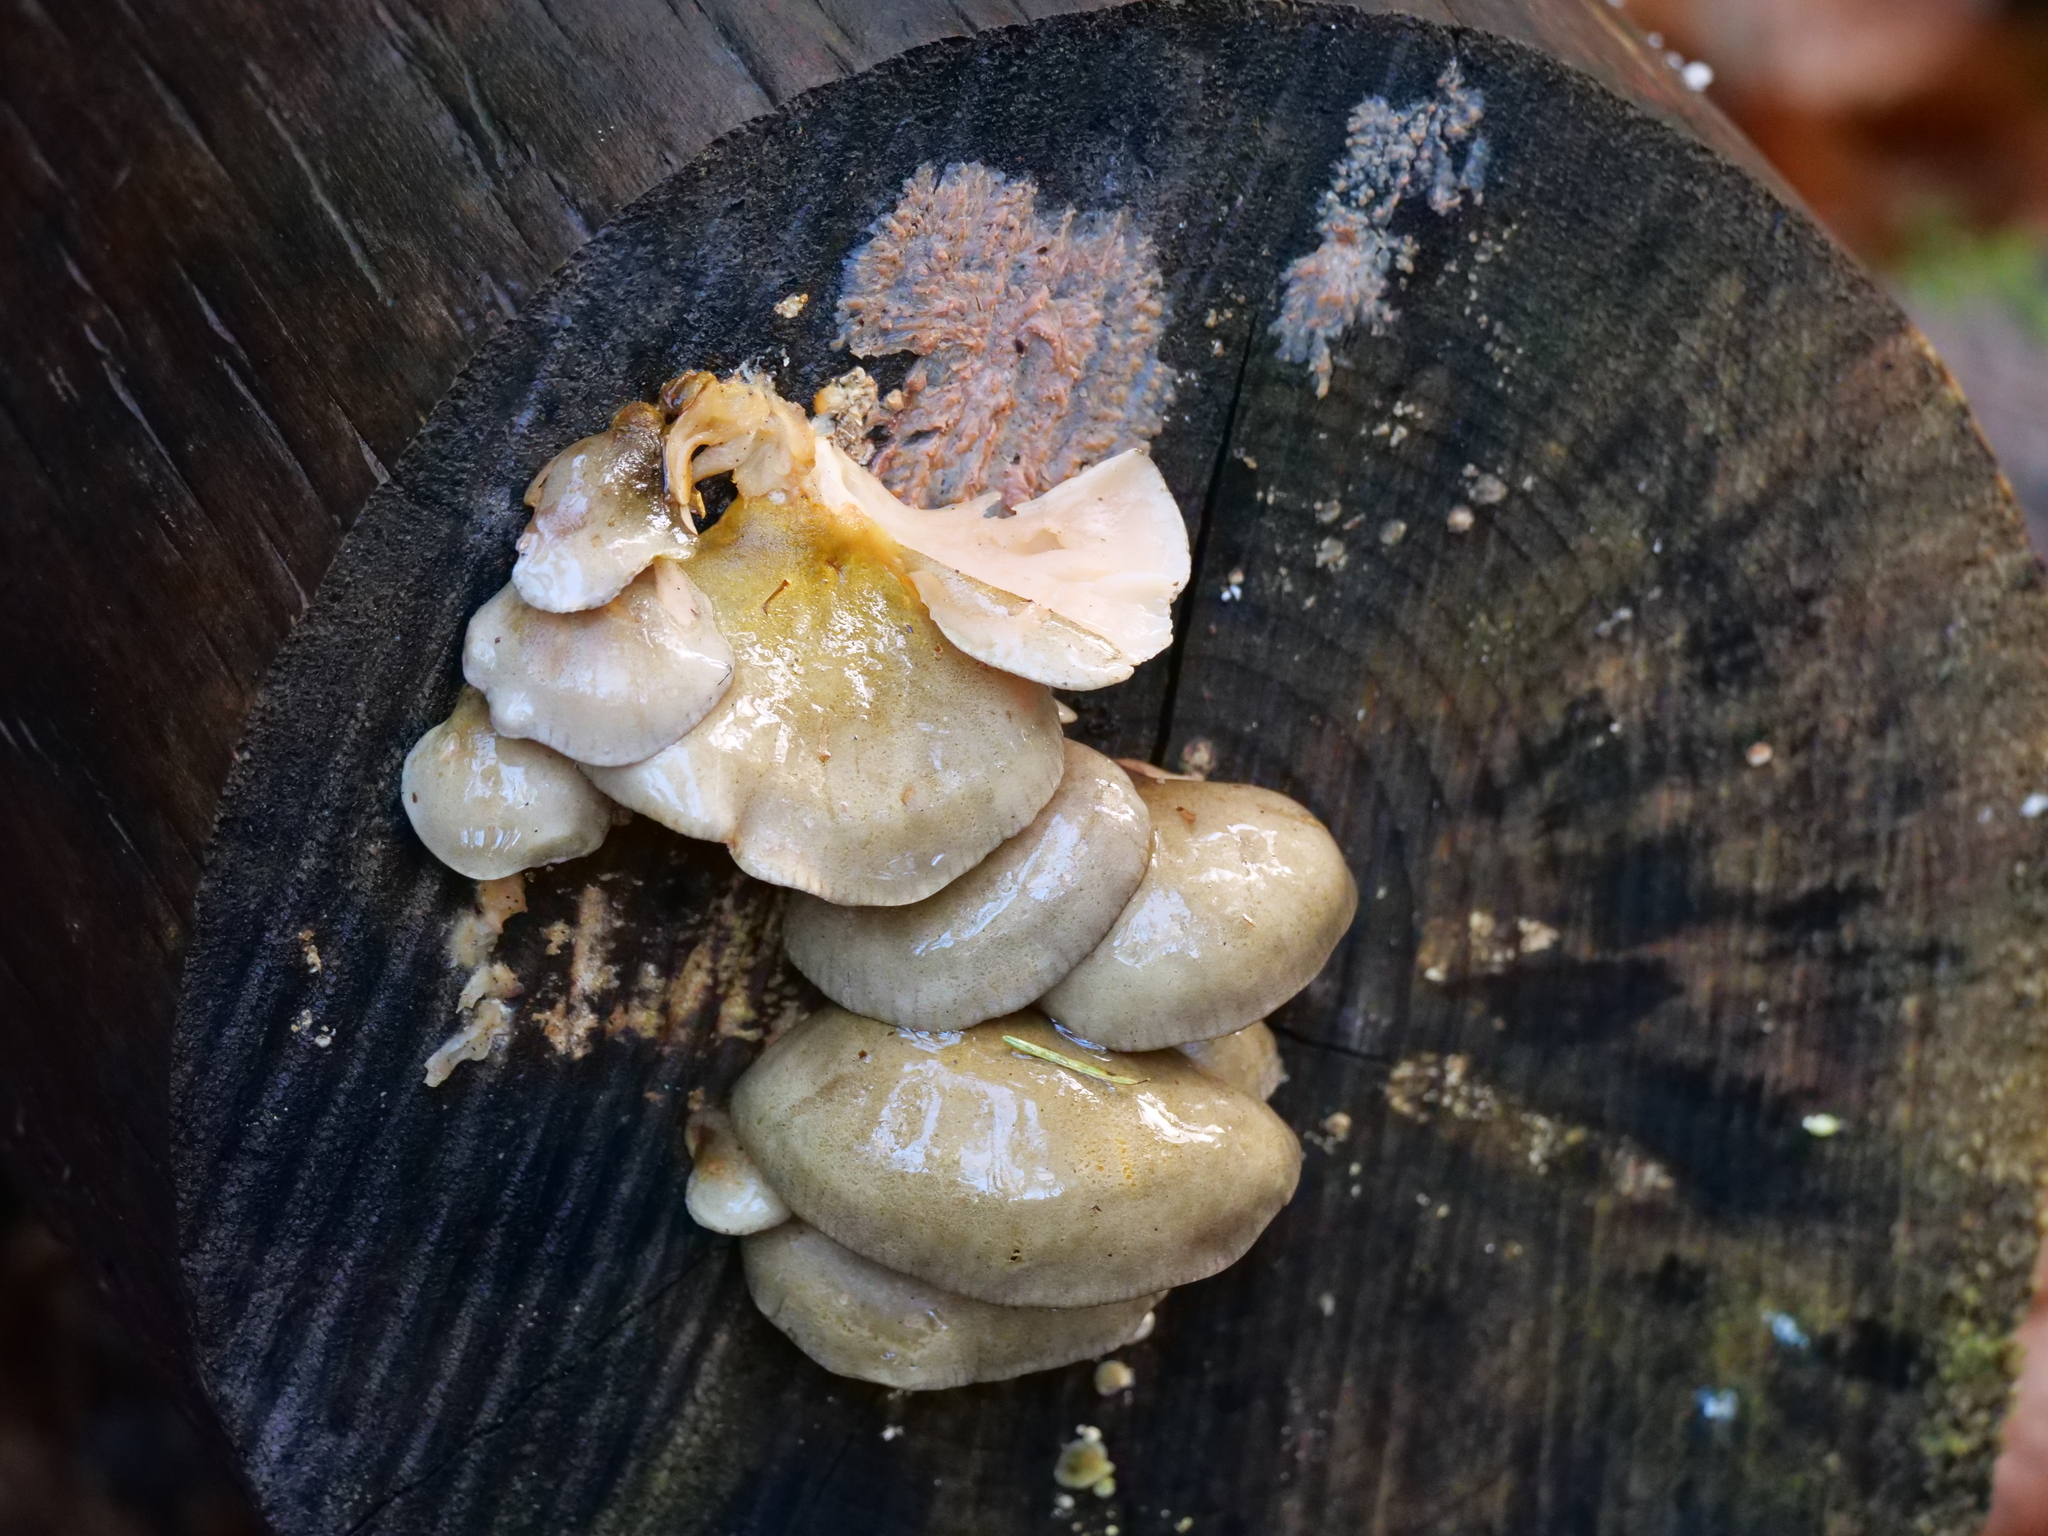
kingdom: Fungi
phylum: Basidiomycota
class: Agaricomycetes
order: Agaricales
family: Sarcomyxaceae
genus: Sarcomyxa
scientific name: Sarcomyxa serotina
